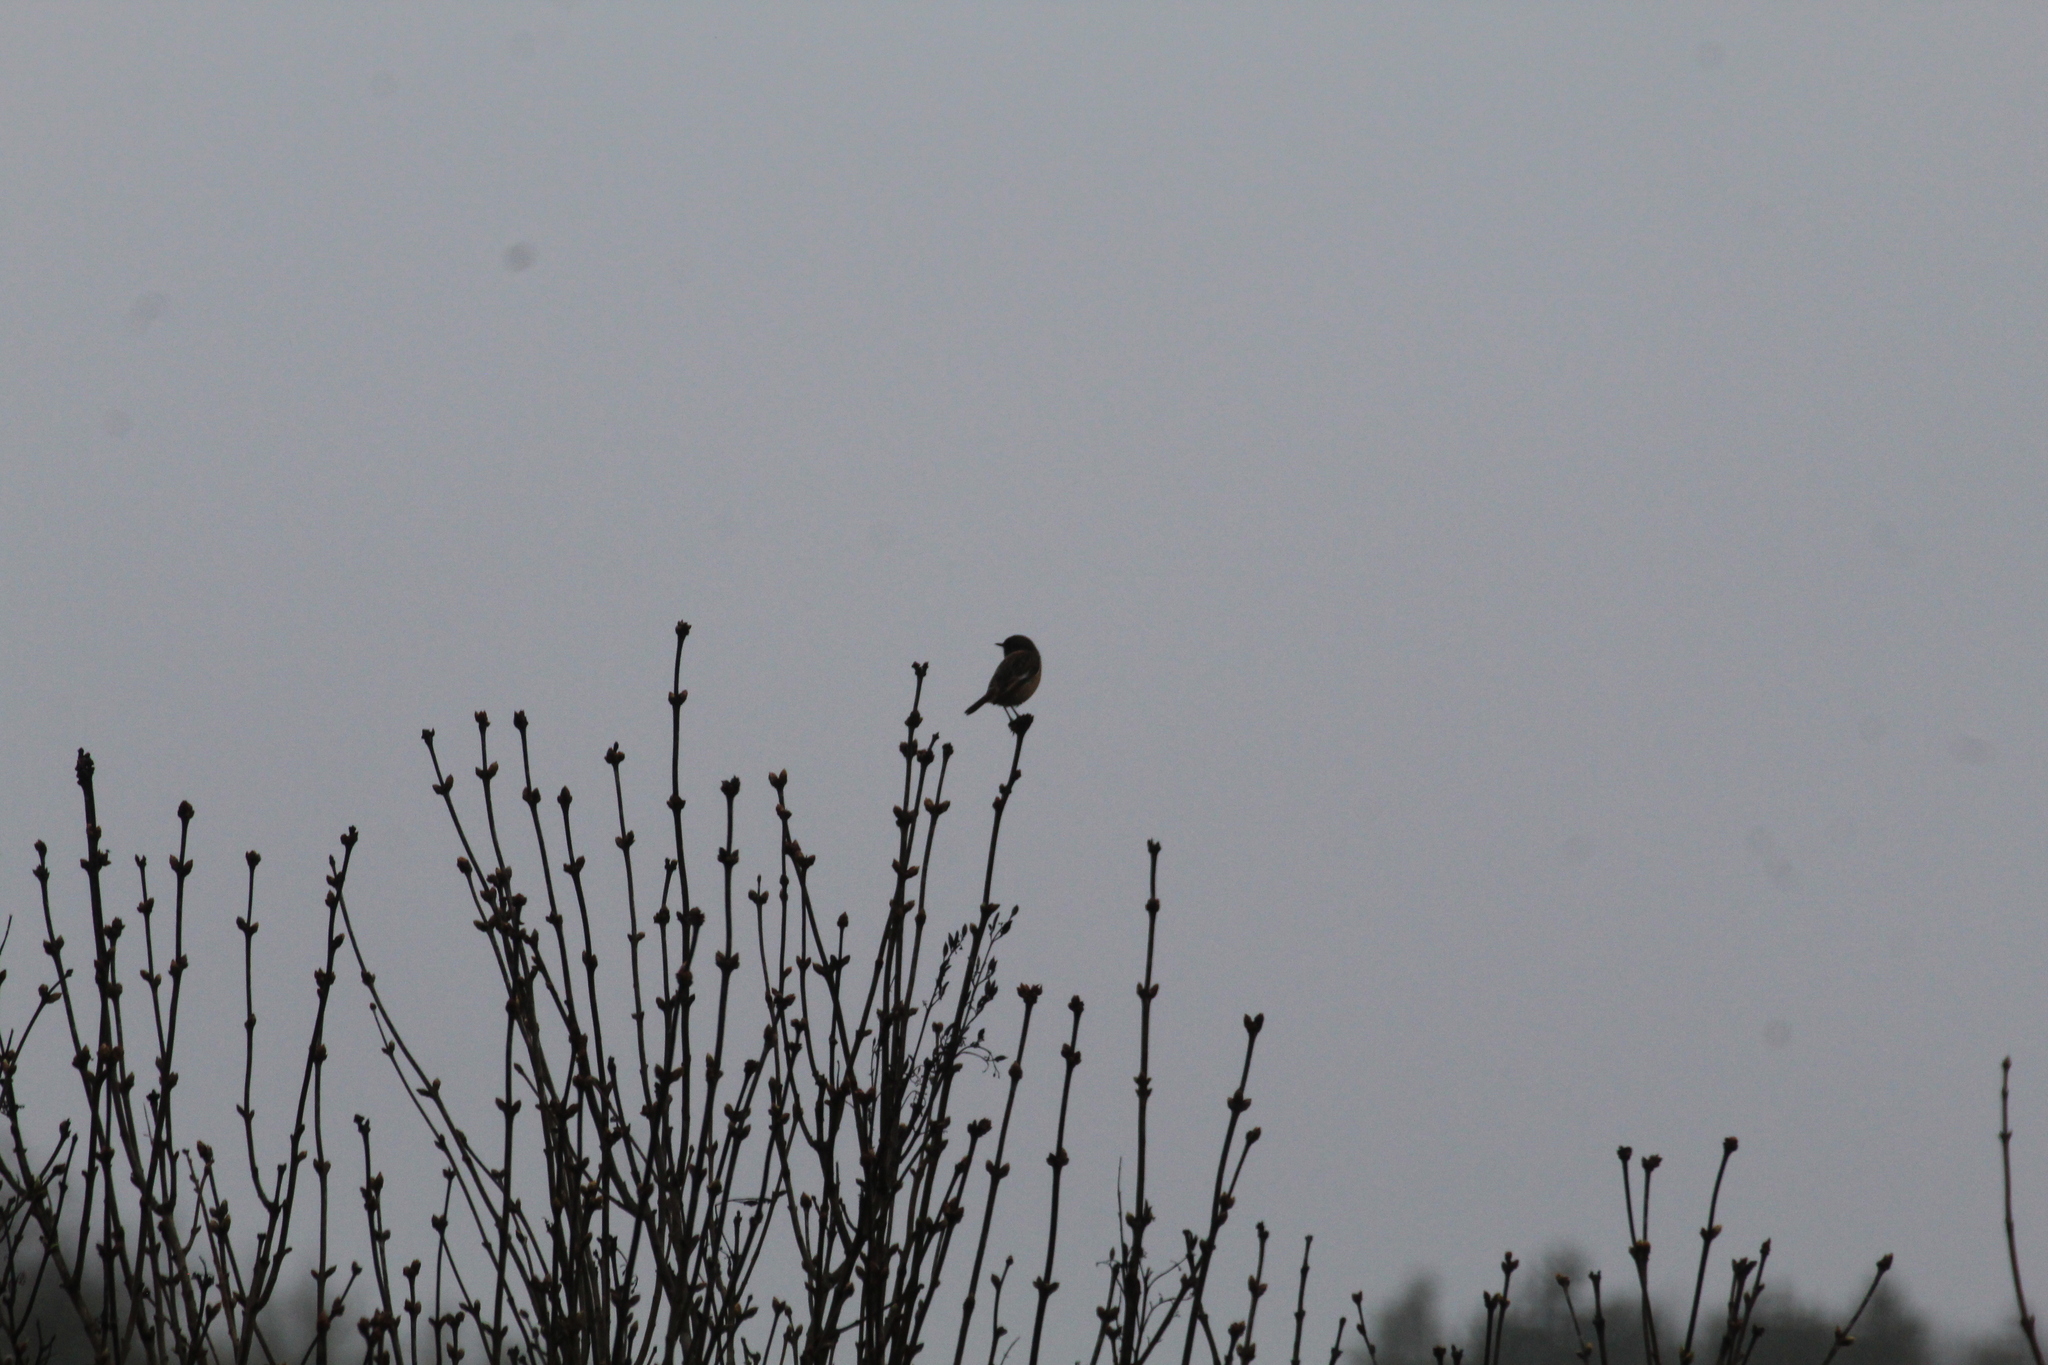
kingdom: Animalia
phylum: Chordata
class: Aves
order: Passeriformes
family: Muscicapidae
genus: Saxicola
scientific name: Saxicola rubicola
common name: European stonechat
